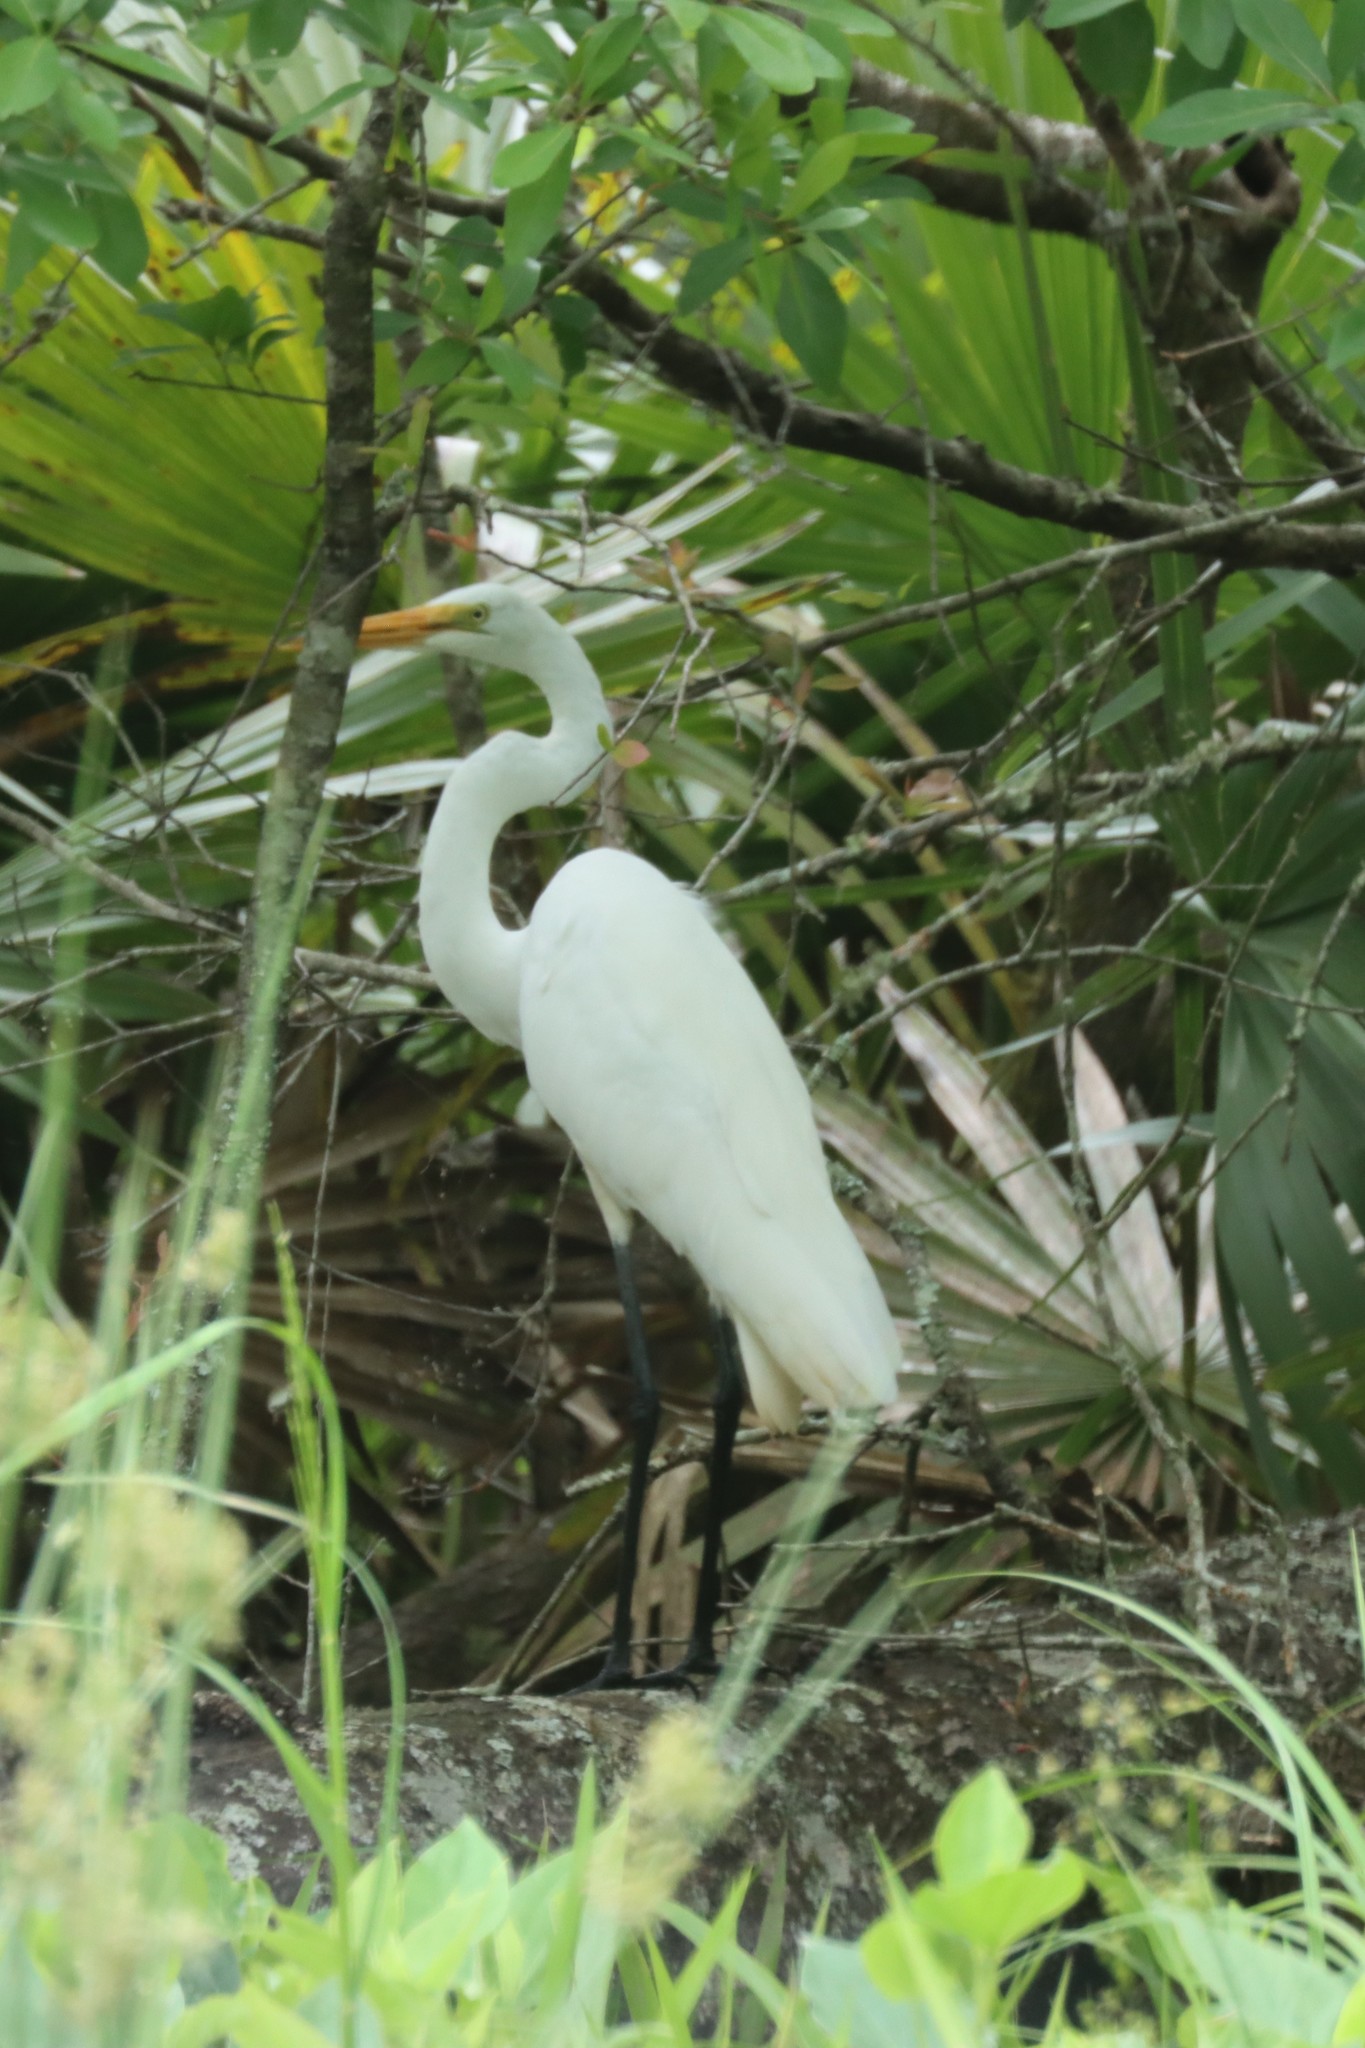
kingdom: Animalia
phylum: Chordata
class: Aves
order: Pelecaniformes
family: Ardeidae
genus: Ardea
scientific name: Ardea alba
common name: Great egret
